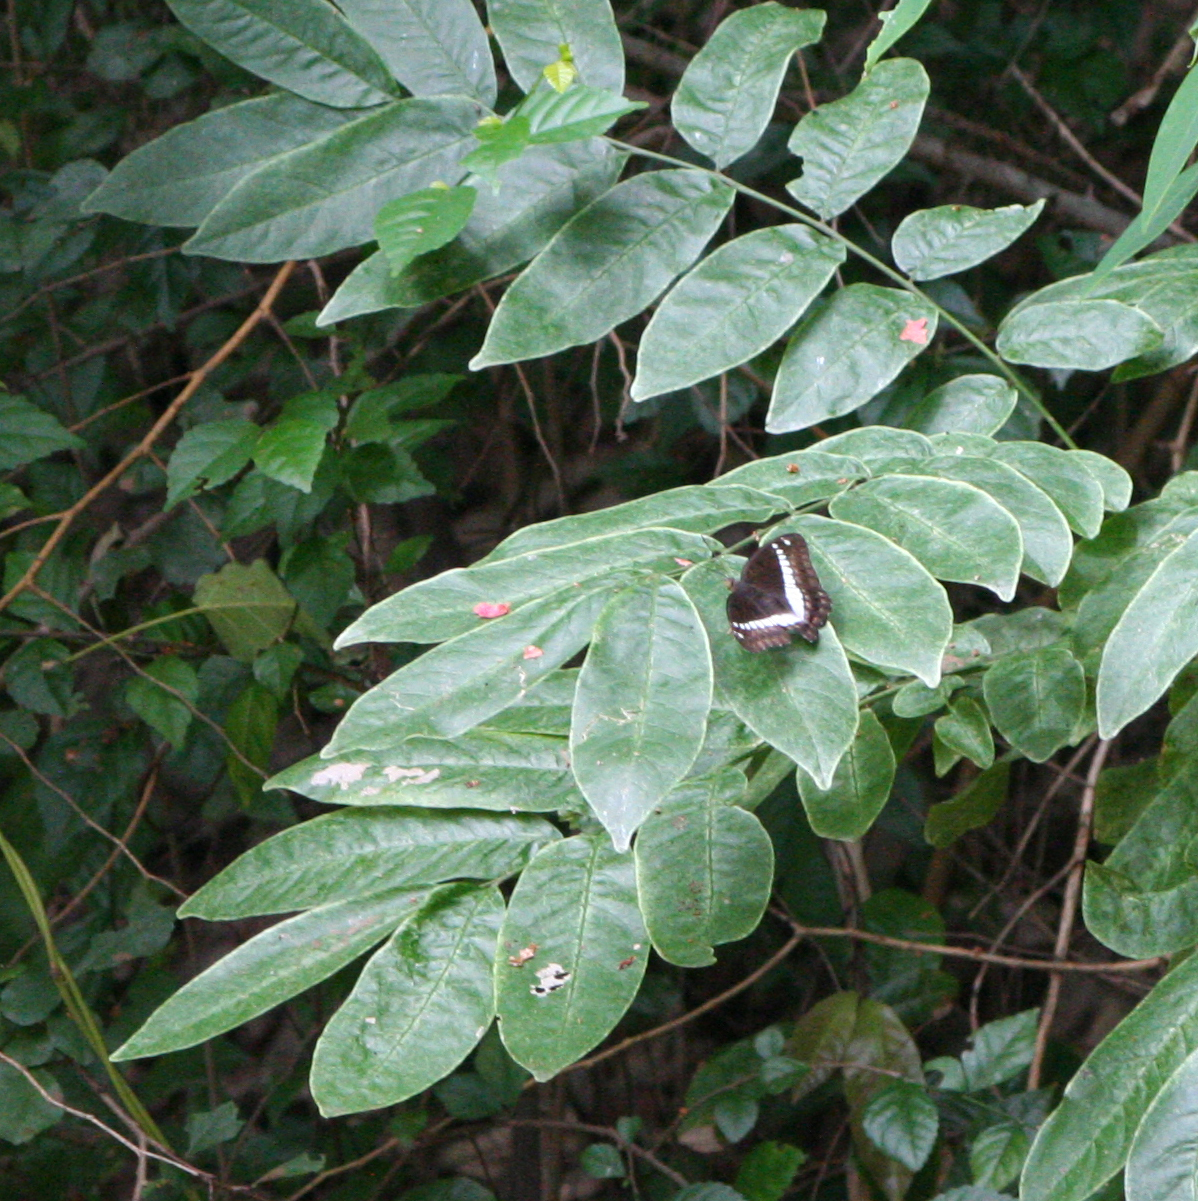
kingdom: Animalia
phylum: Arthropoda
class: Insecta
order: Lepidoptera
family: Nymphalidae
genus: Euthalia
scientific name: Euthalia recta
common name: Redtail marquis
